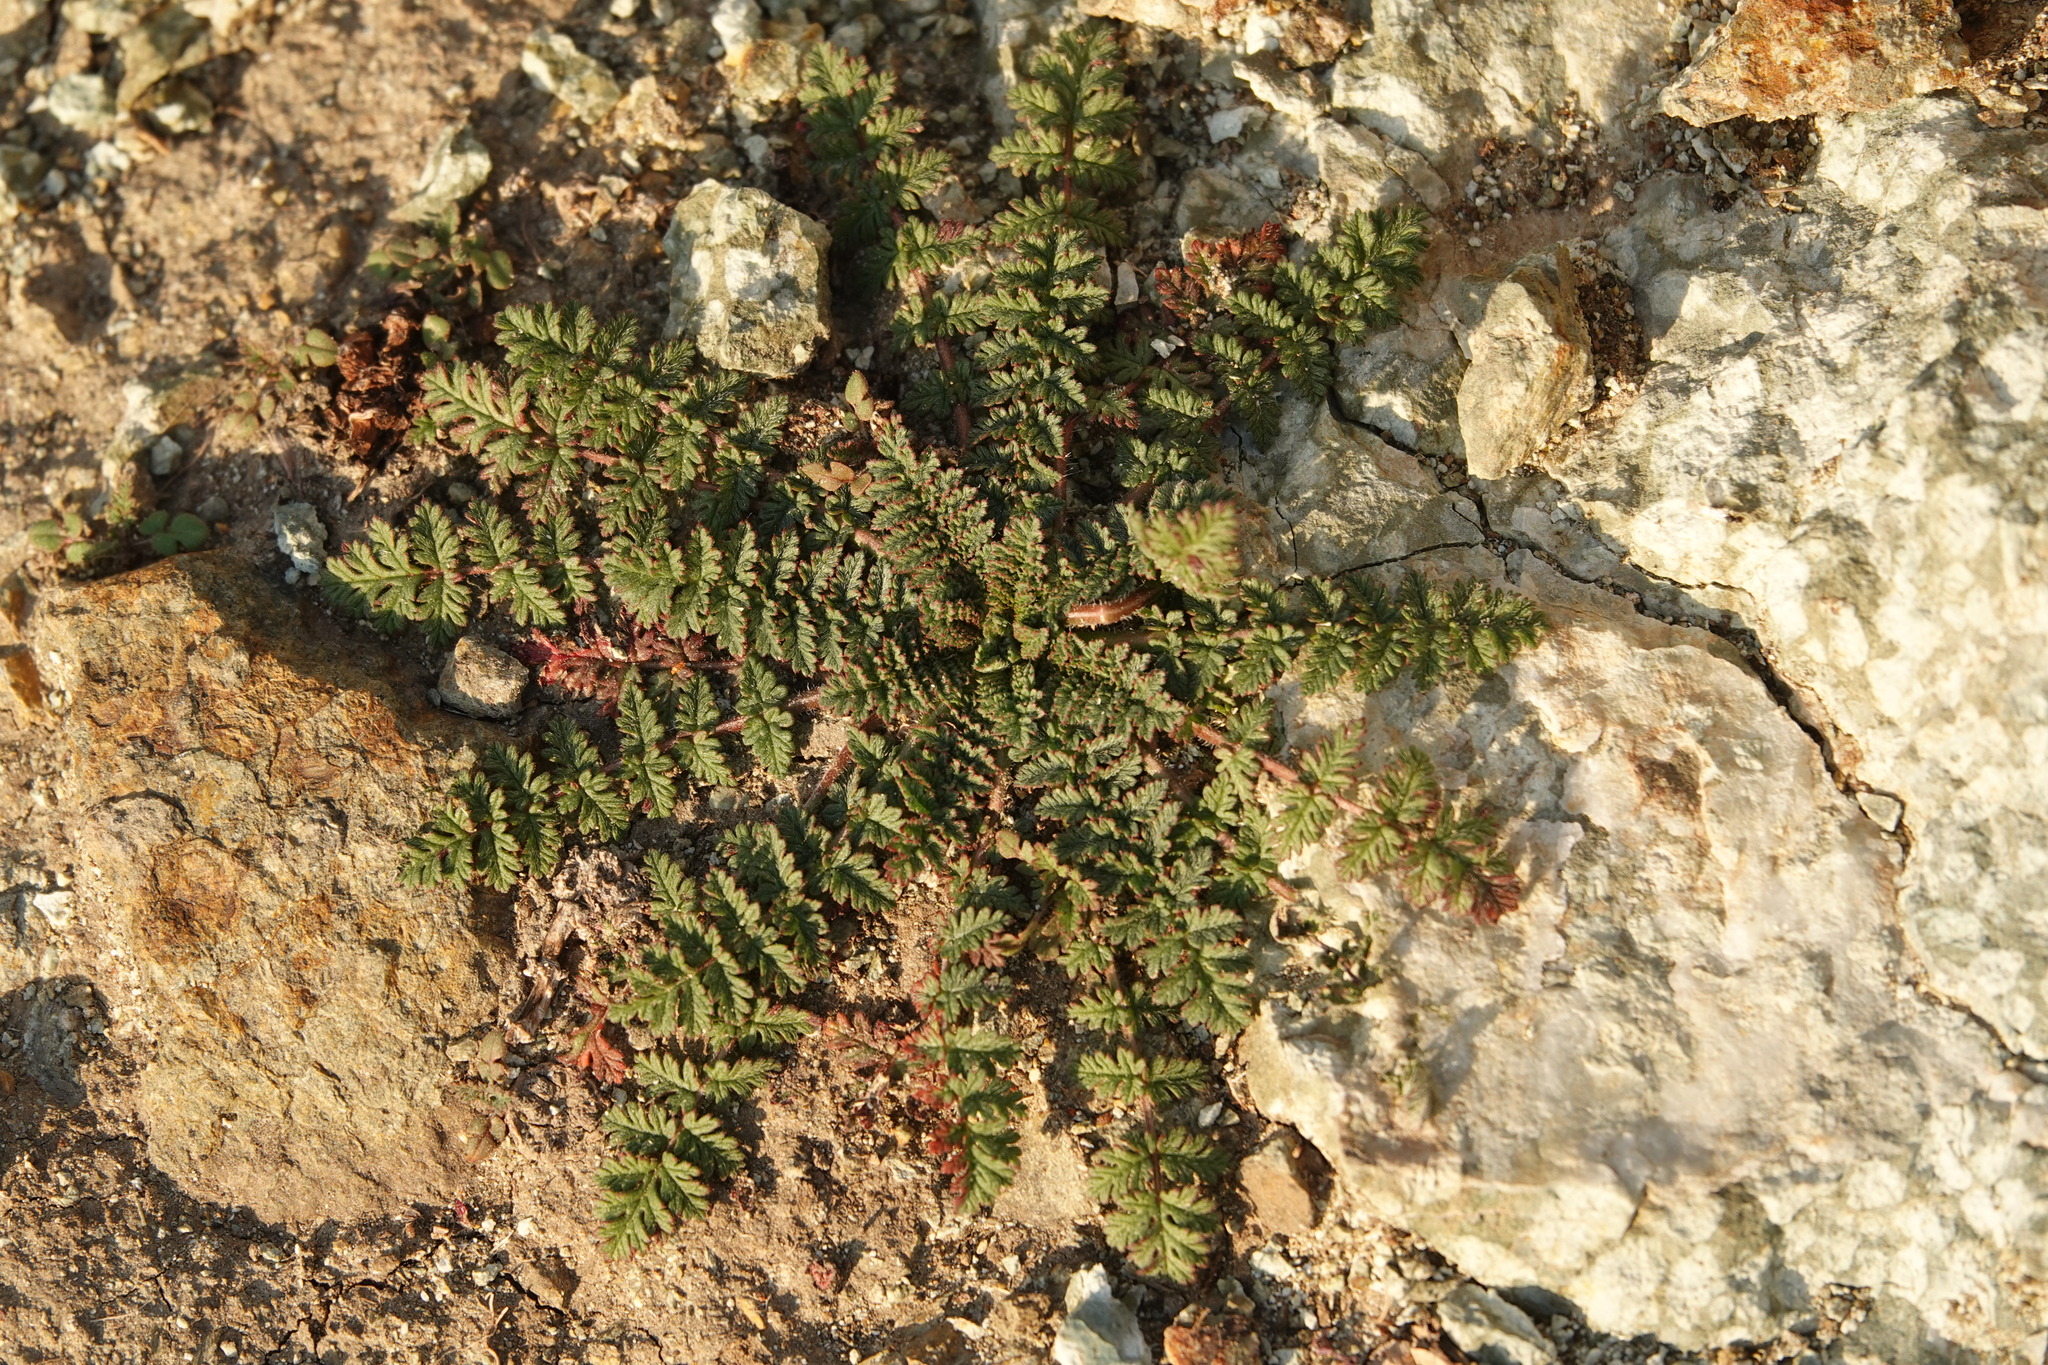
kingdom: Plantae
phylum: Tracheophyta
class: Magnoliopsida
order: Geraniales
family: Geraniaceae
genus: Erodium
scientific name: Erodium cicutarium
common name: Common stork's-bill
